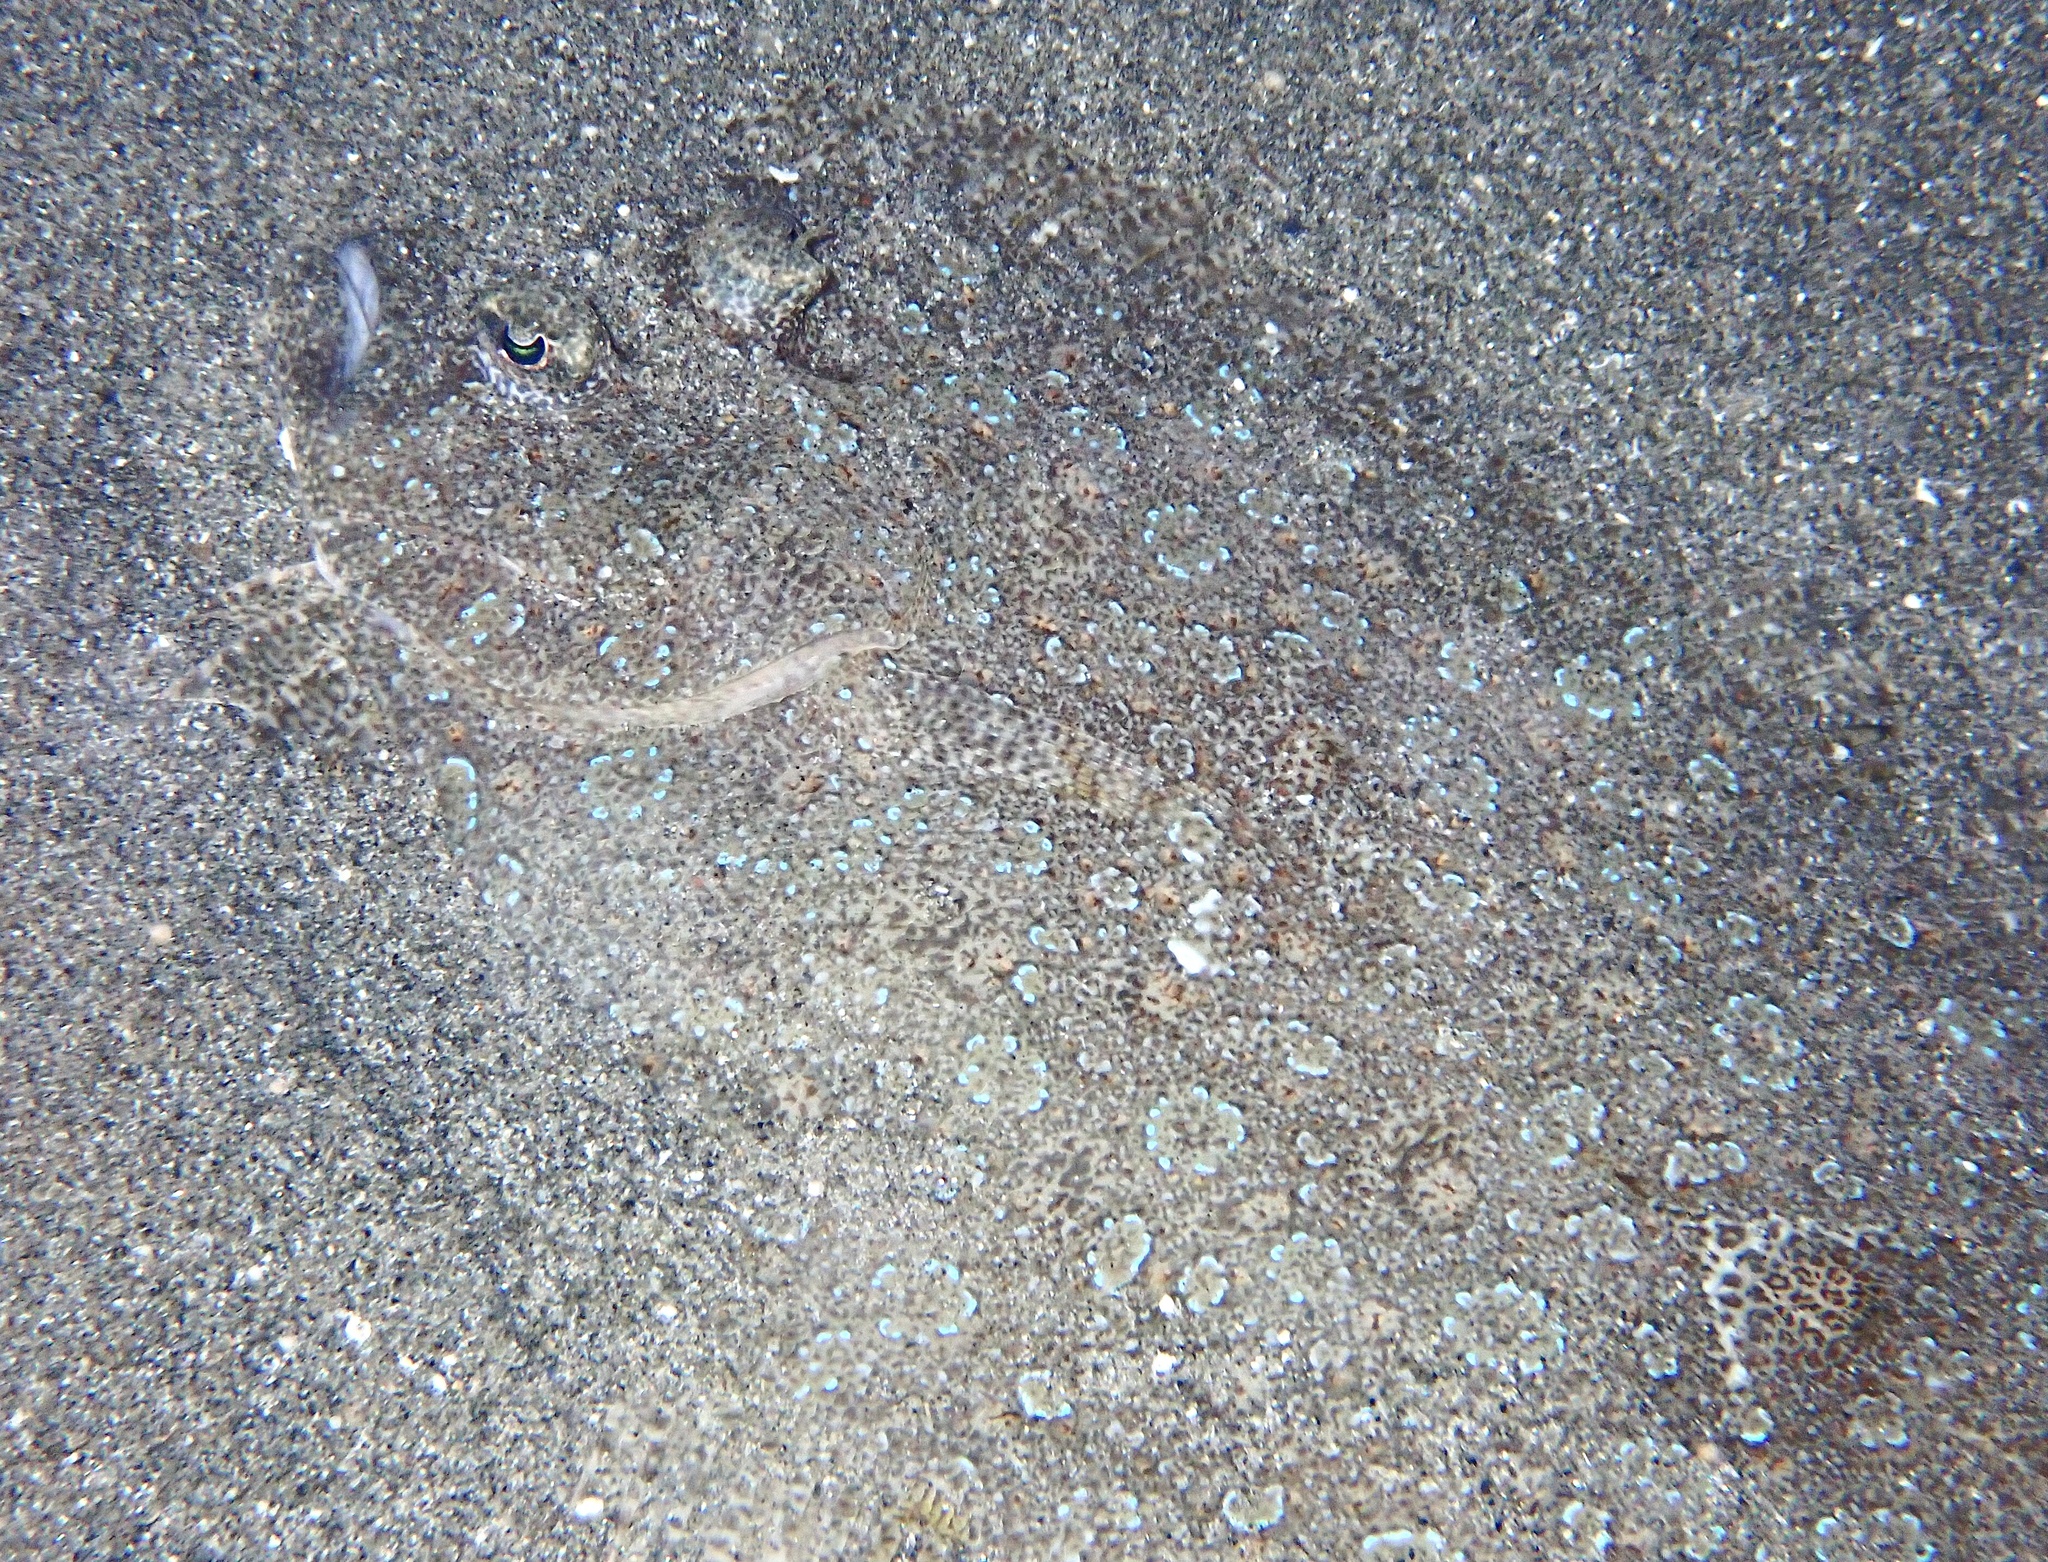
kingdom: Animalia
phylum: Chordata
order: Pleuronectiformes
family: Bothidae
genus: Bothus
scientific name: Bothus pantherinus
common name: Leopard flounder
